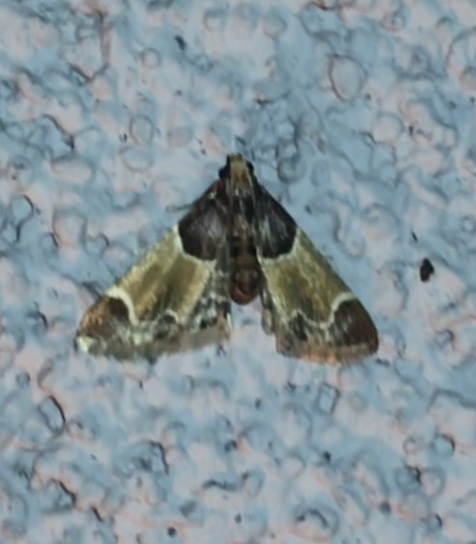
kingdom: Animalia
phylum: Arthropoda
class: Insecta
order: Lepidoptera
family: Pyralidae
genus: Pyralis
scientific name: Pyralis farinalis
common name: Meal moth
